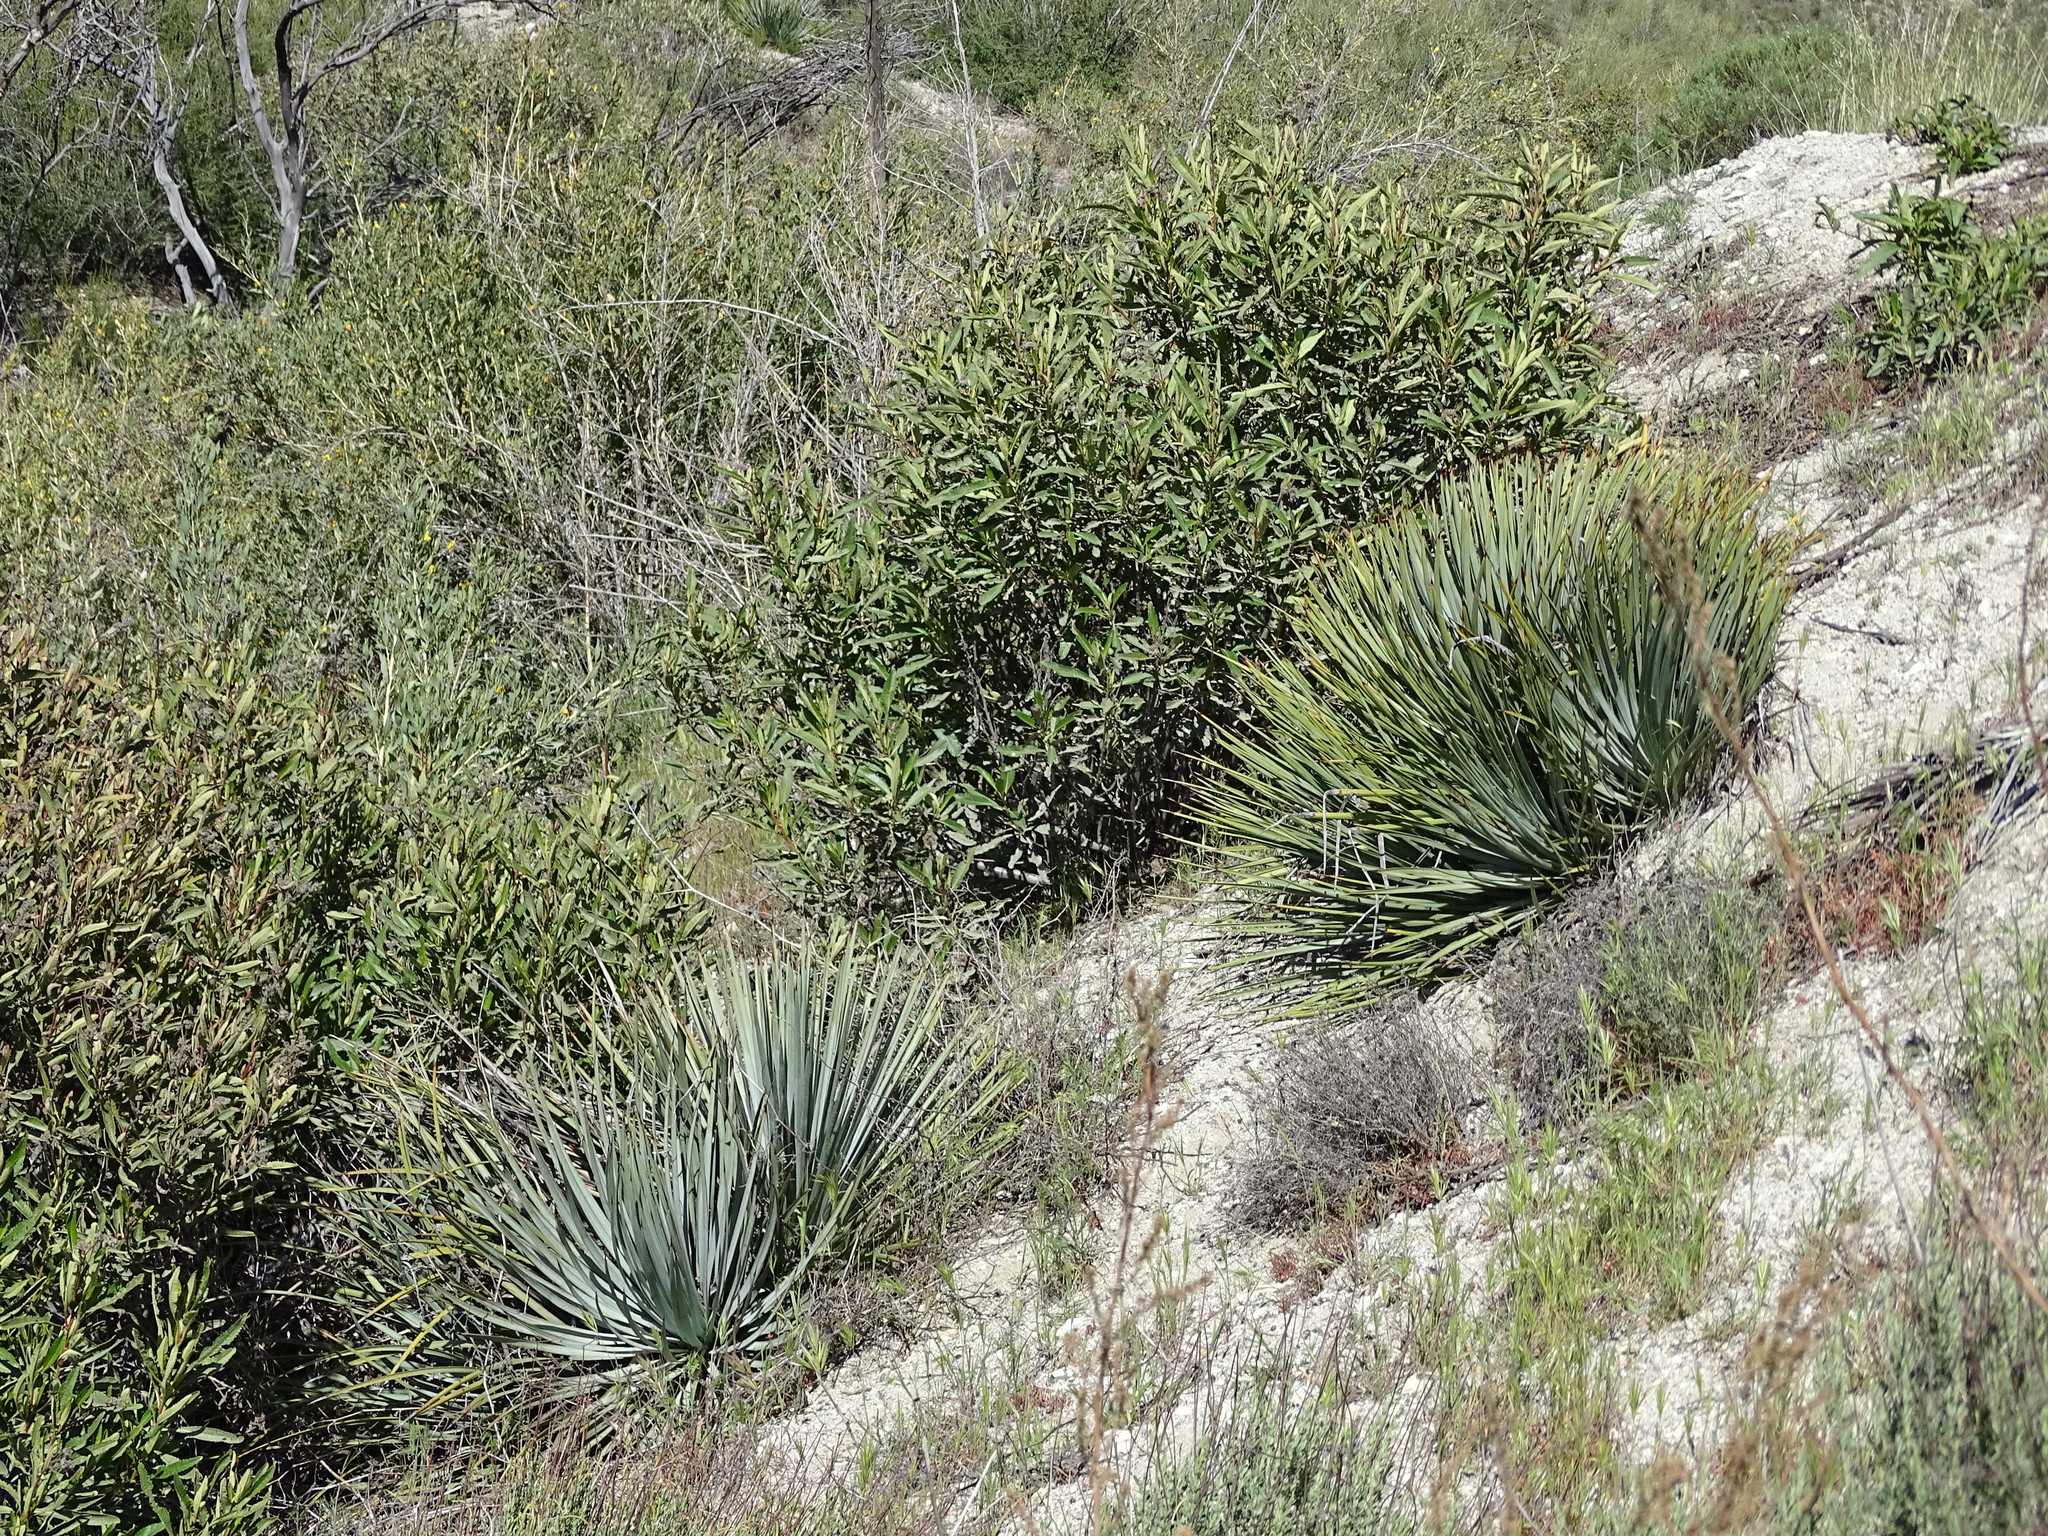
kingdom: Plantae
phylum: Tracheophyta
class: Liliopsida
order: Asparagales
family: Asparagaceae
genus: Hesperoyucca
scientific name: Hesperoyucca whipplei
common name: Our lord's-candle
